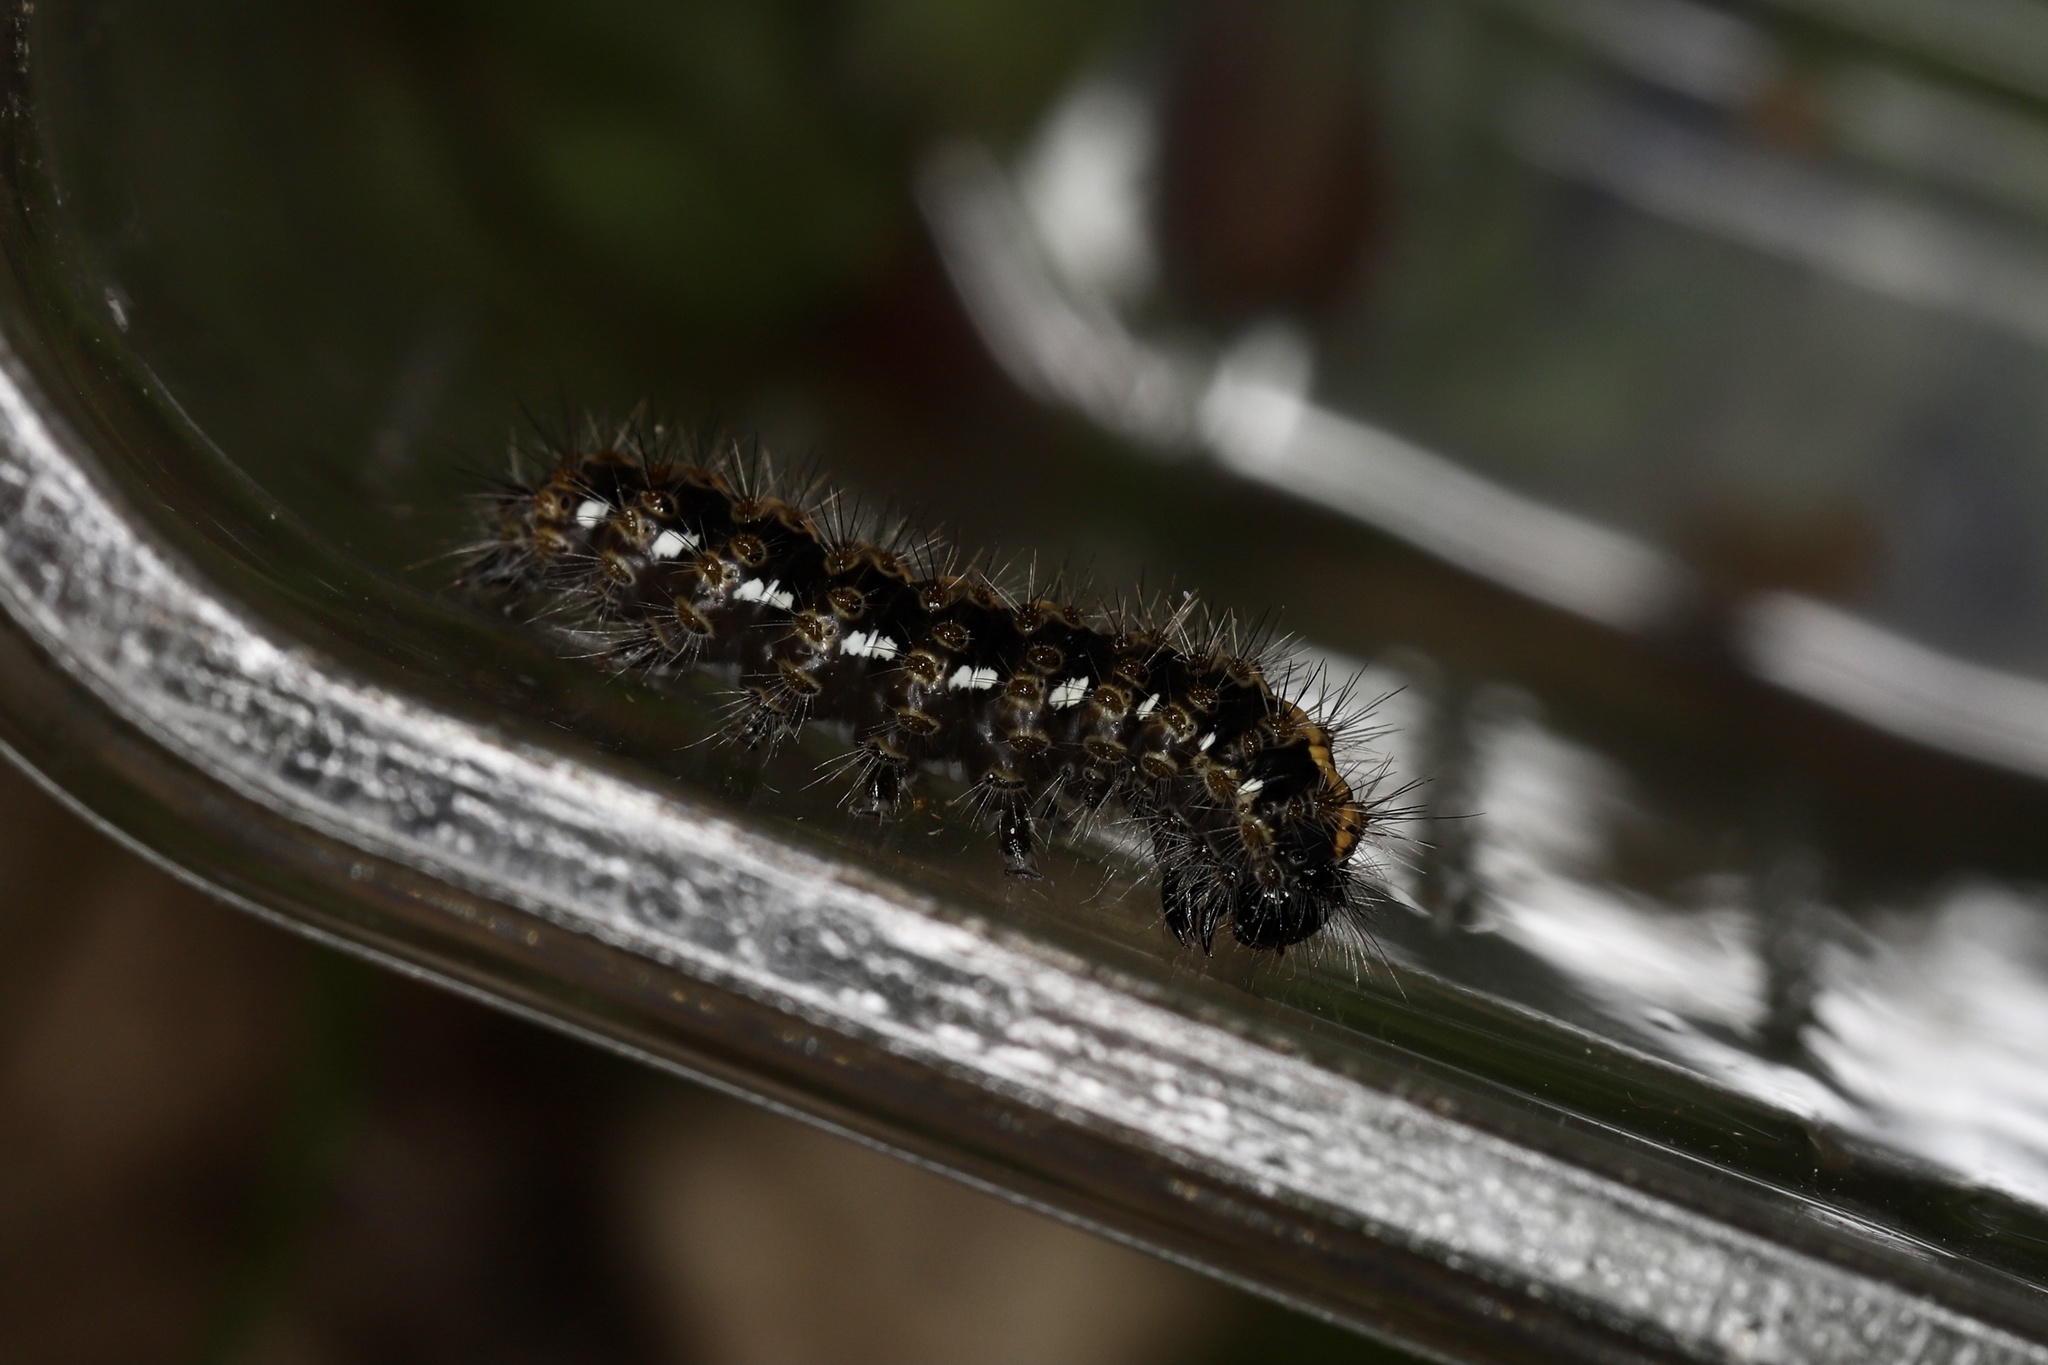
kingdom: Animalia
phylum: Arthropoda
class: Insecta
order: Lepidoptera
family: Erebidae
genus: Euplagia
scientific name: Euplagia quadripunctaria
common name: Jersey tiger
